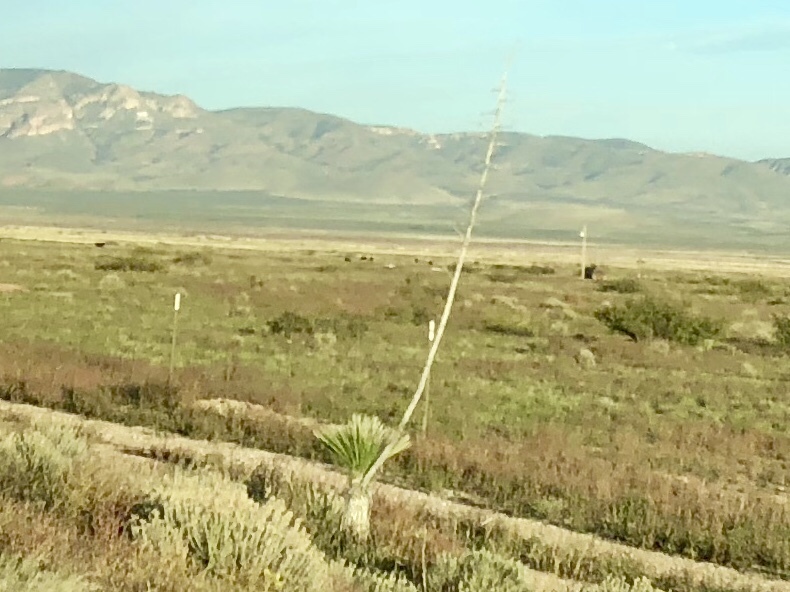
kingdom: Plantae
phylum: Tracheophyta
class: Liliopsida
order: Asparagales
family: Asparagaceae
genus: Yucca
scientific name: Yucca elata
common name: Palmella
